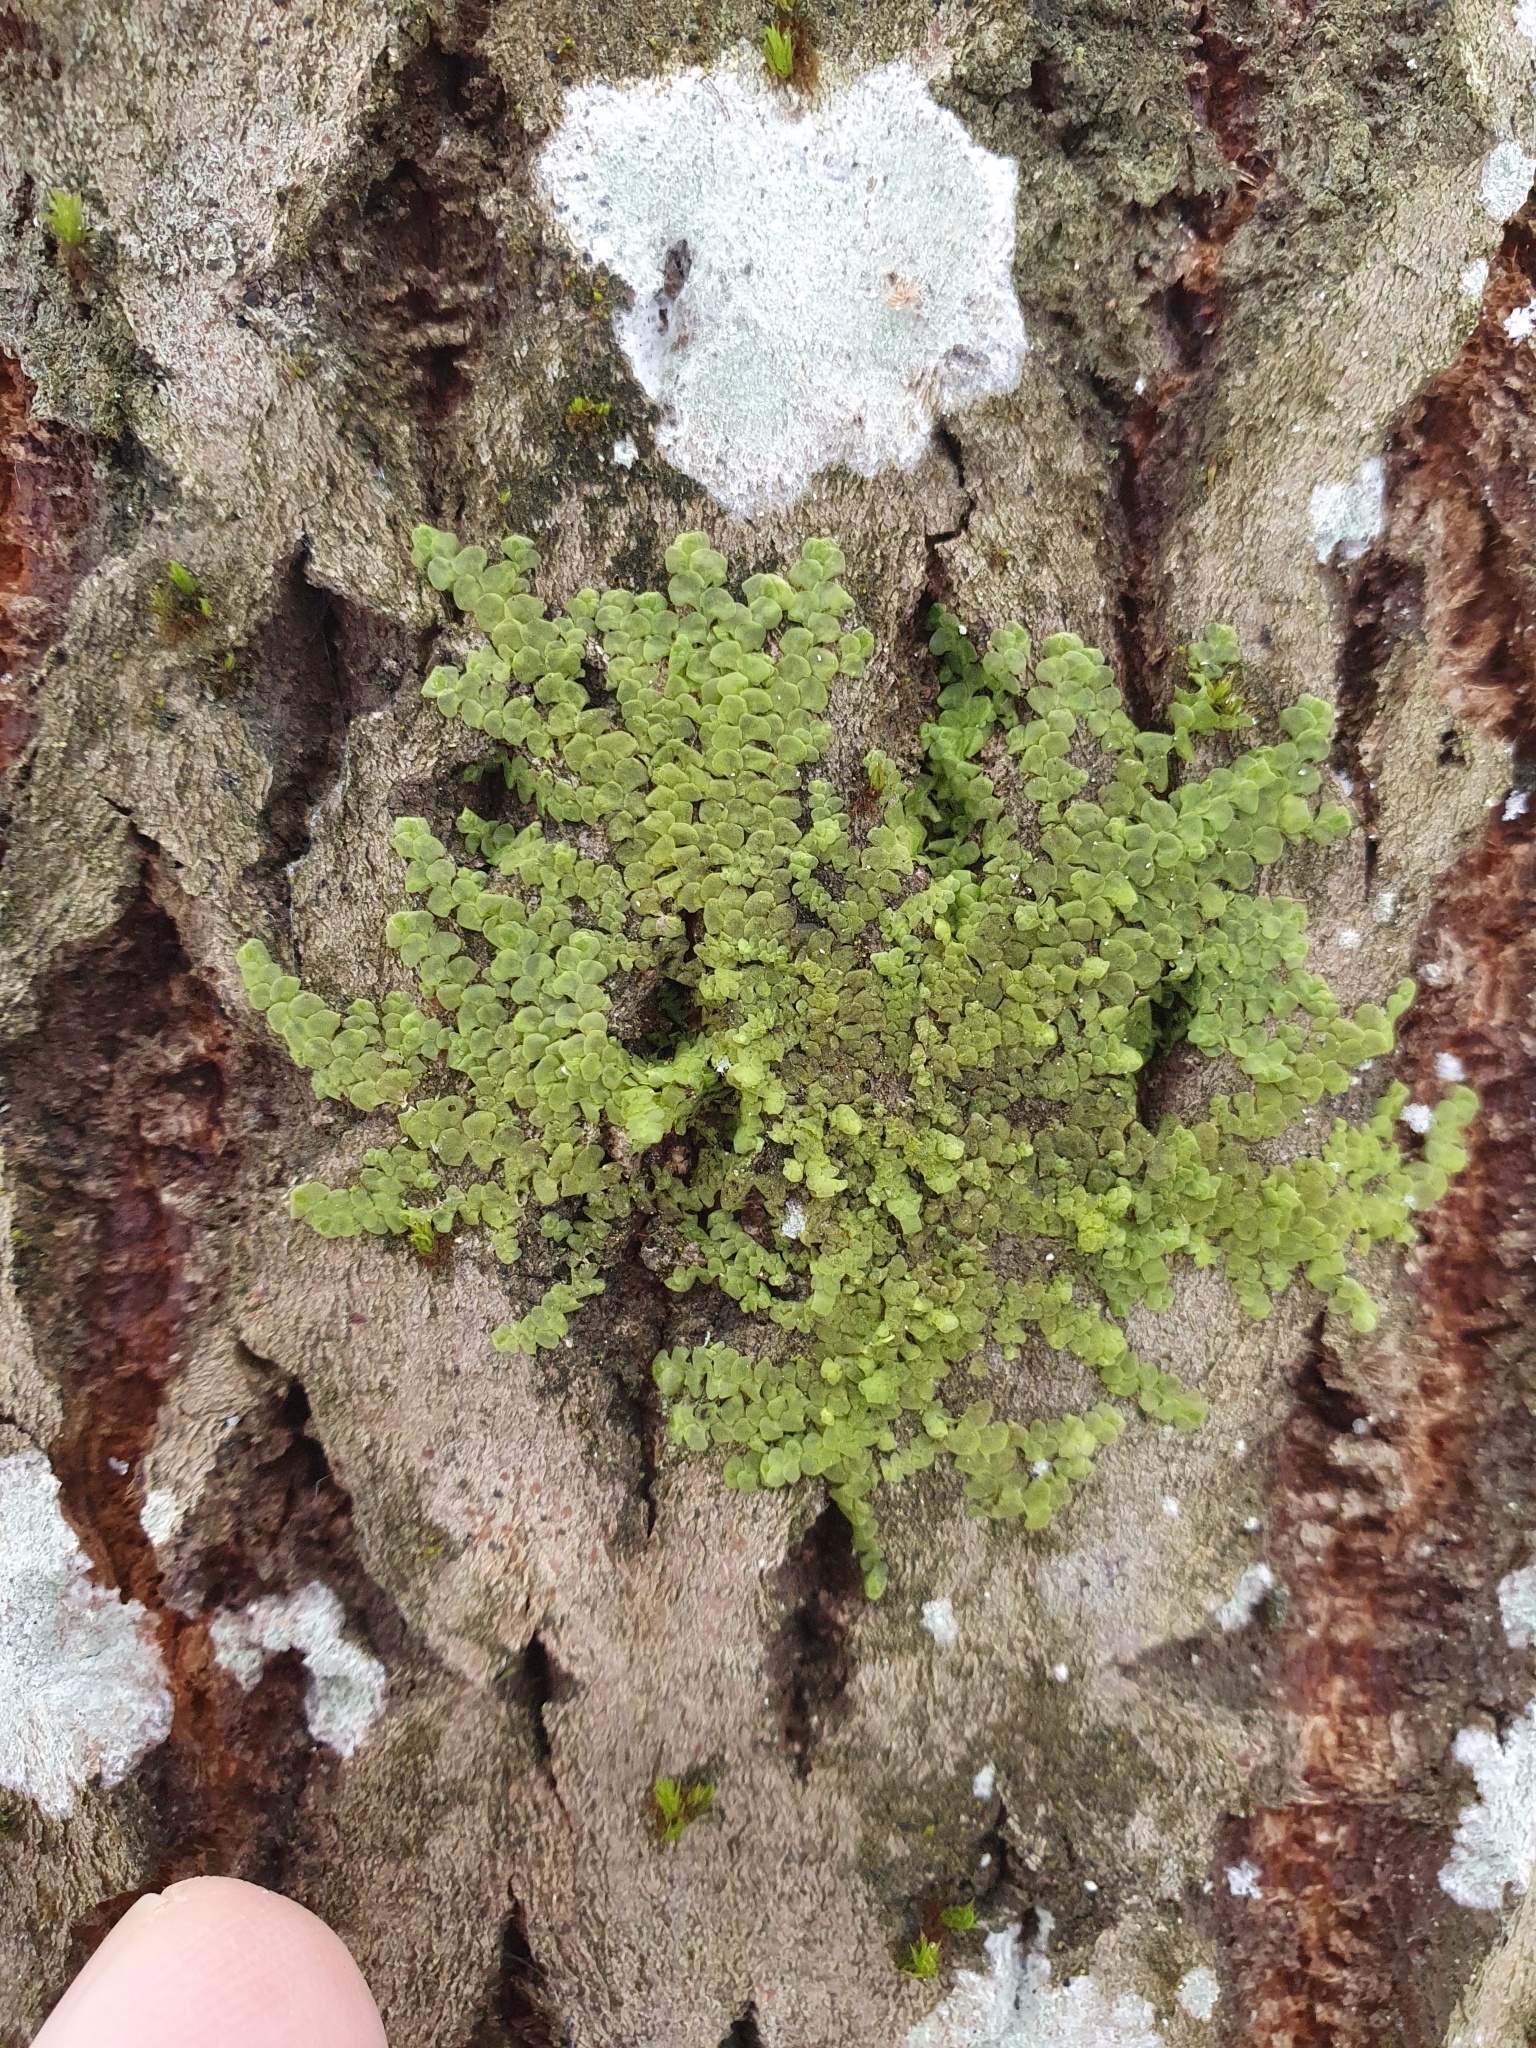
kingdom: Plantae
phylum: Marchantiophyta
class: Jungermanniopsida
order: Porellales
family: Radulaceae
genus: Radula
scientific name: Radula complanata
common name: Flat-leaved scalewort
